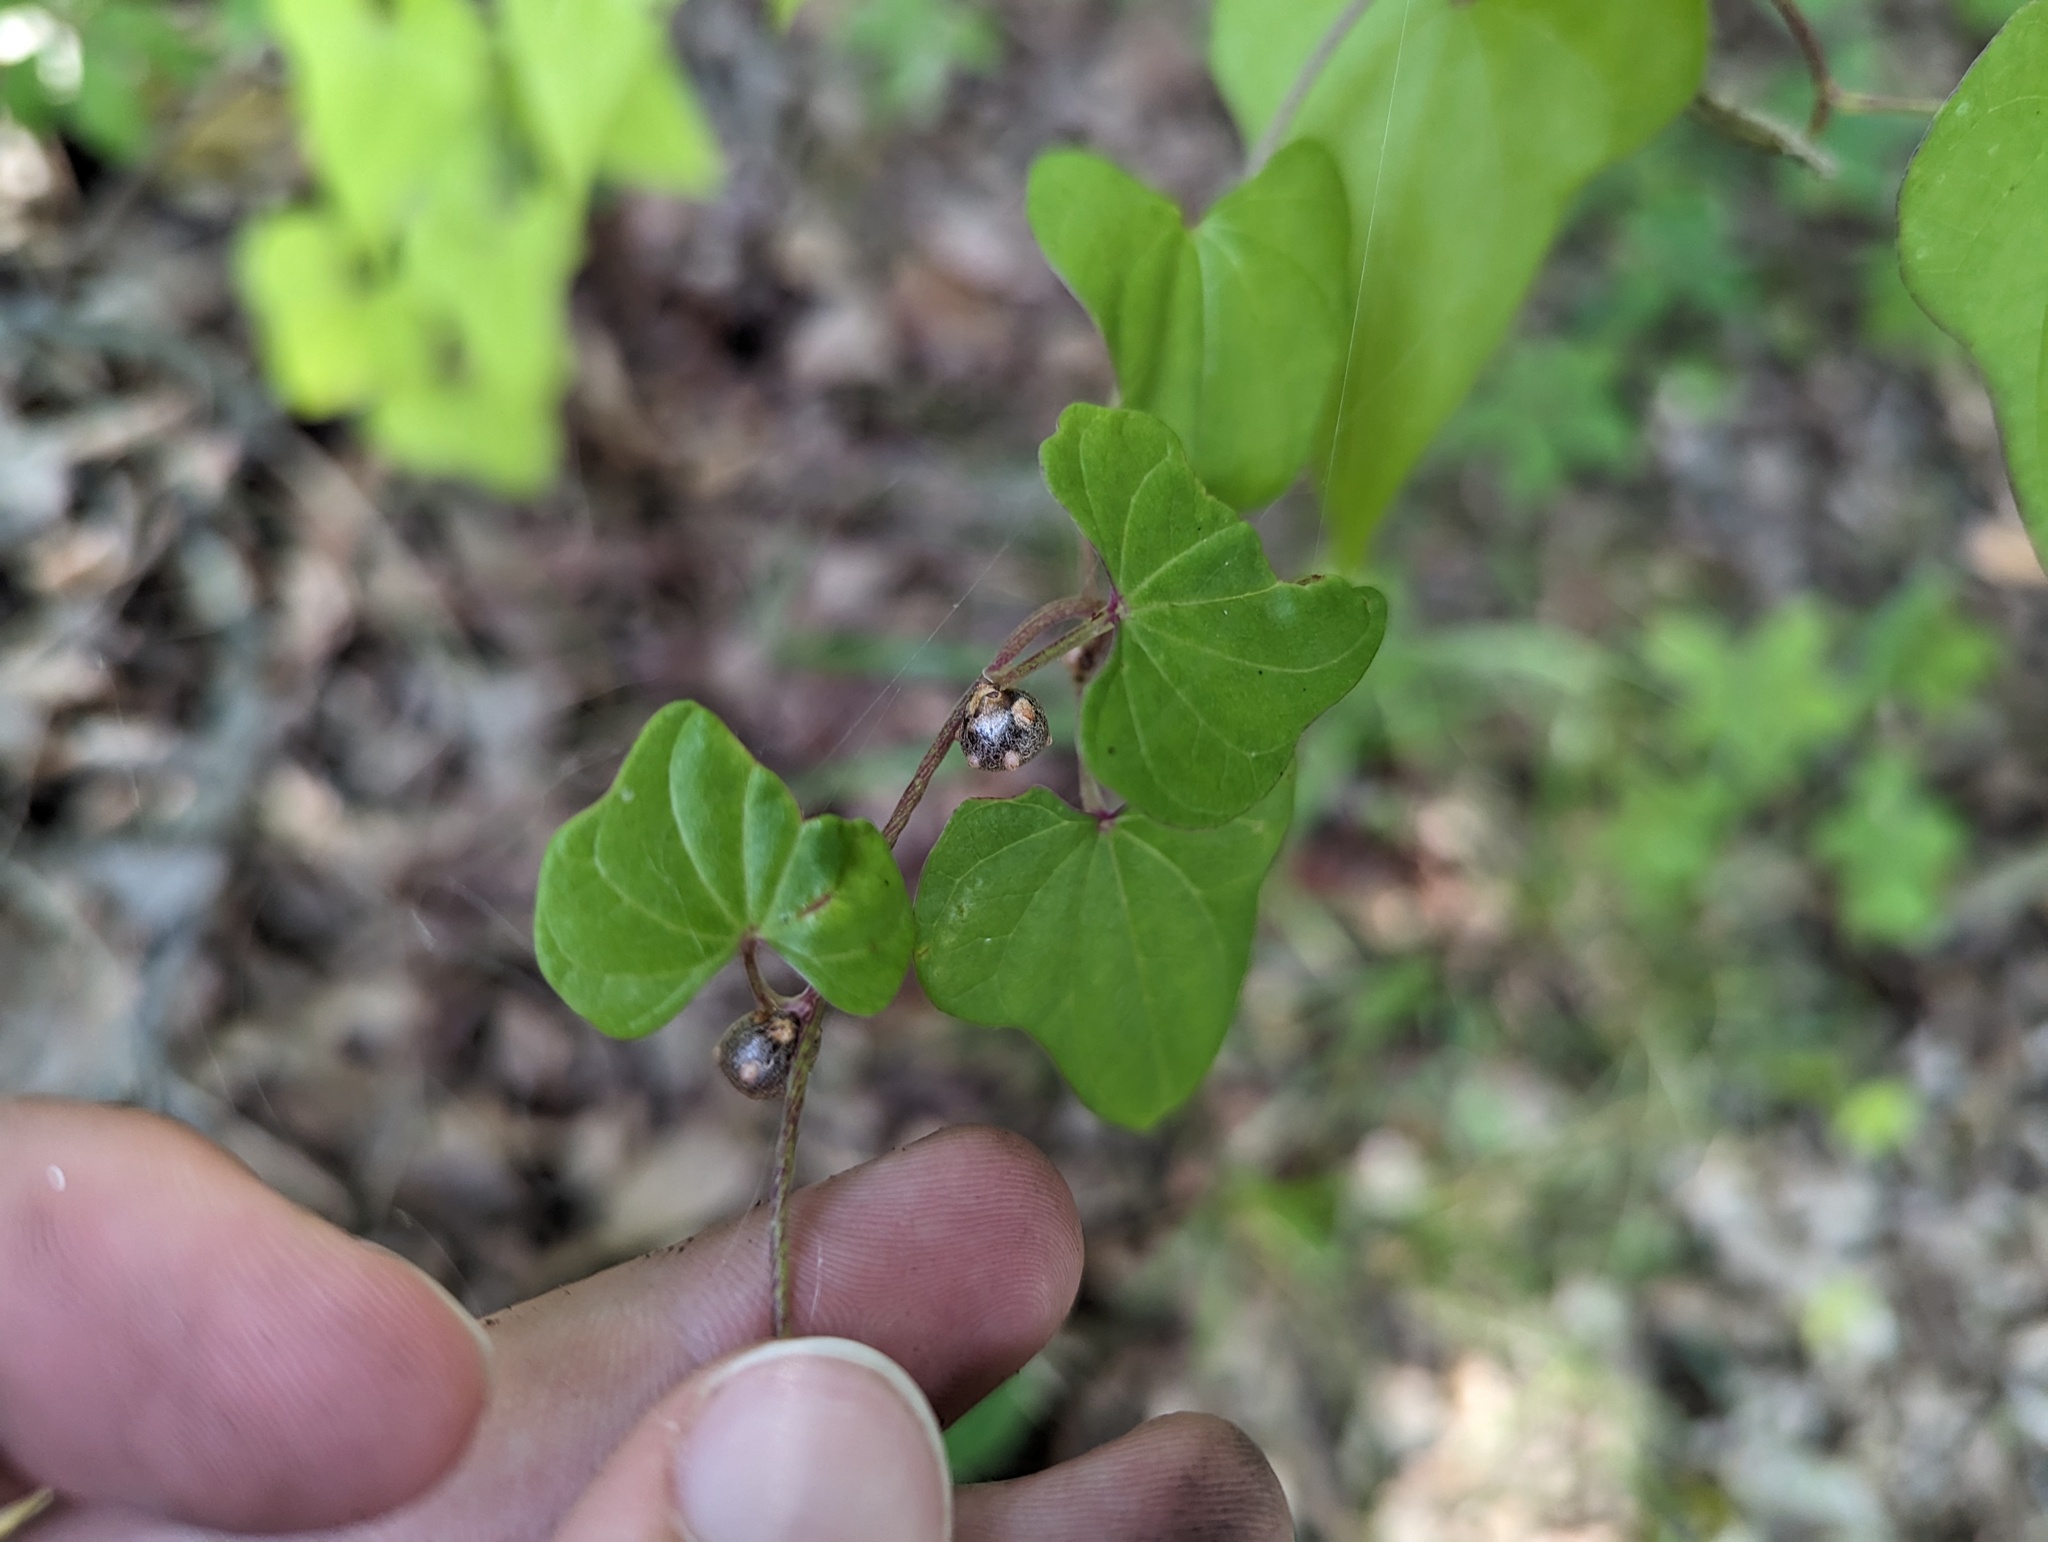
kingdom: Plantae
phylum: Tracheophyta
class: Liliopsida
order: Dioscoreales
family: Dioscoreaceae
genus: Dioscorea
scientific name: Dioscorea polystachya
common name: Chinese yam
